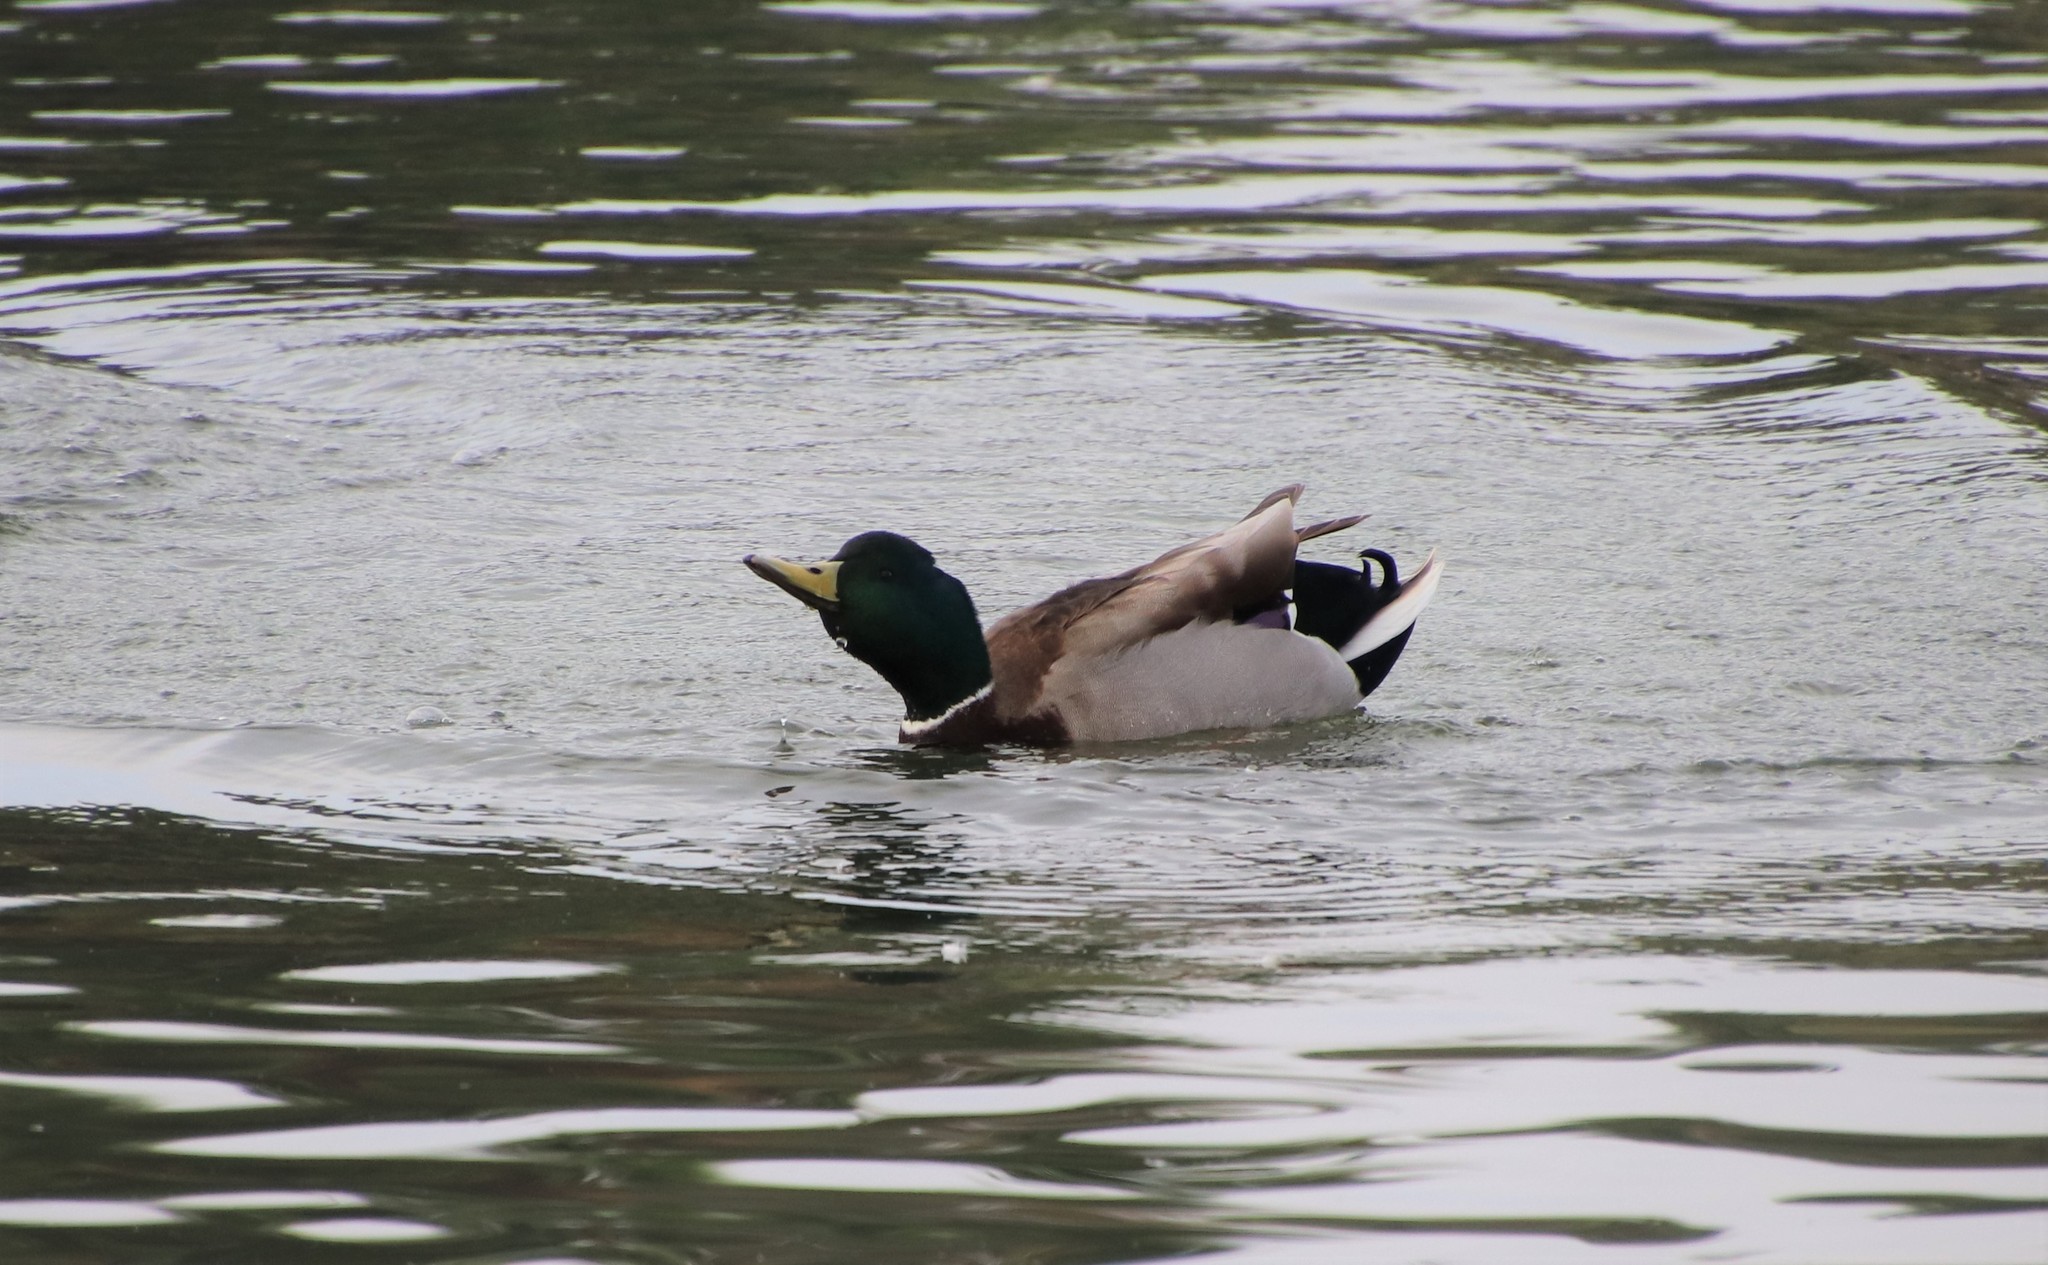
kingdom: Animalia
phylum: Chordata
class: Aves
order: Anseriformes
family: Anatidae
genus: Anas
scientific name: Anas platyrhynchos
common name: Mallard
